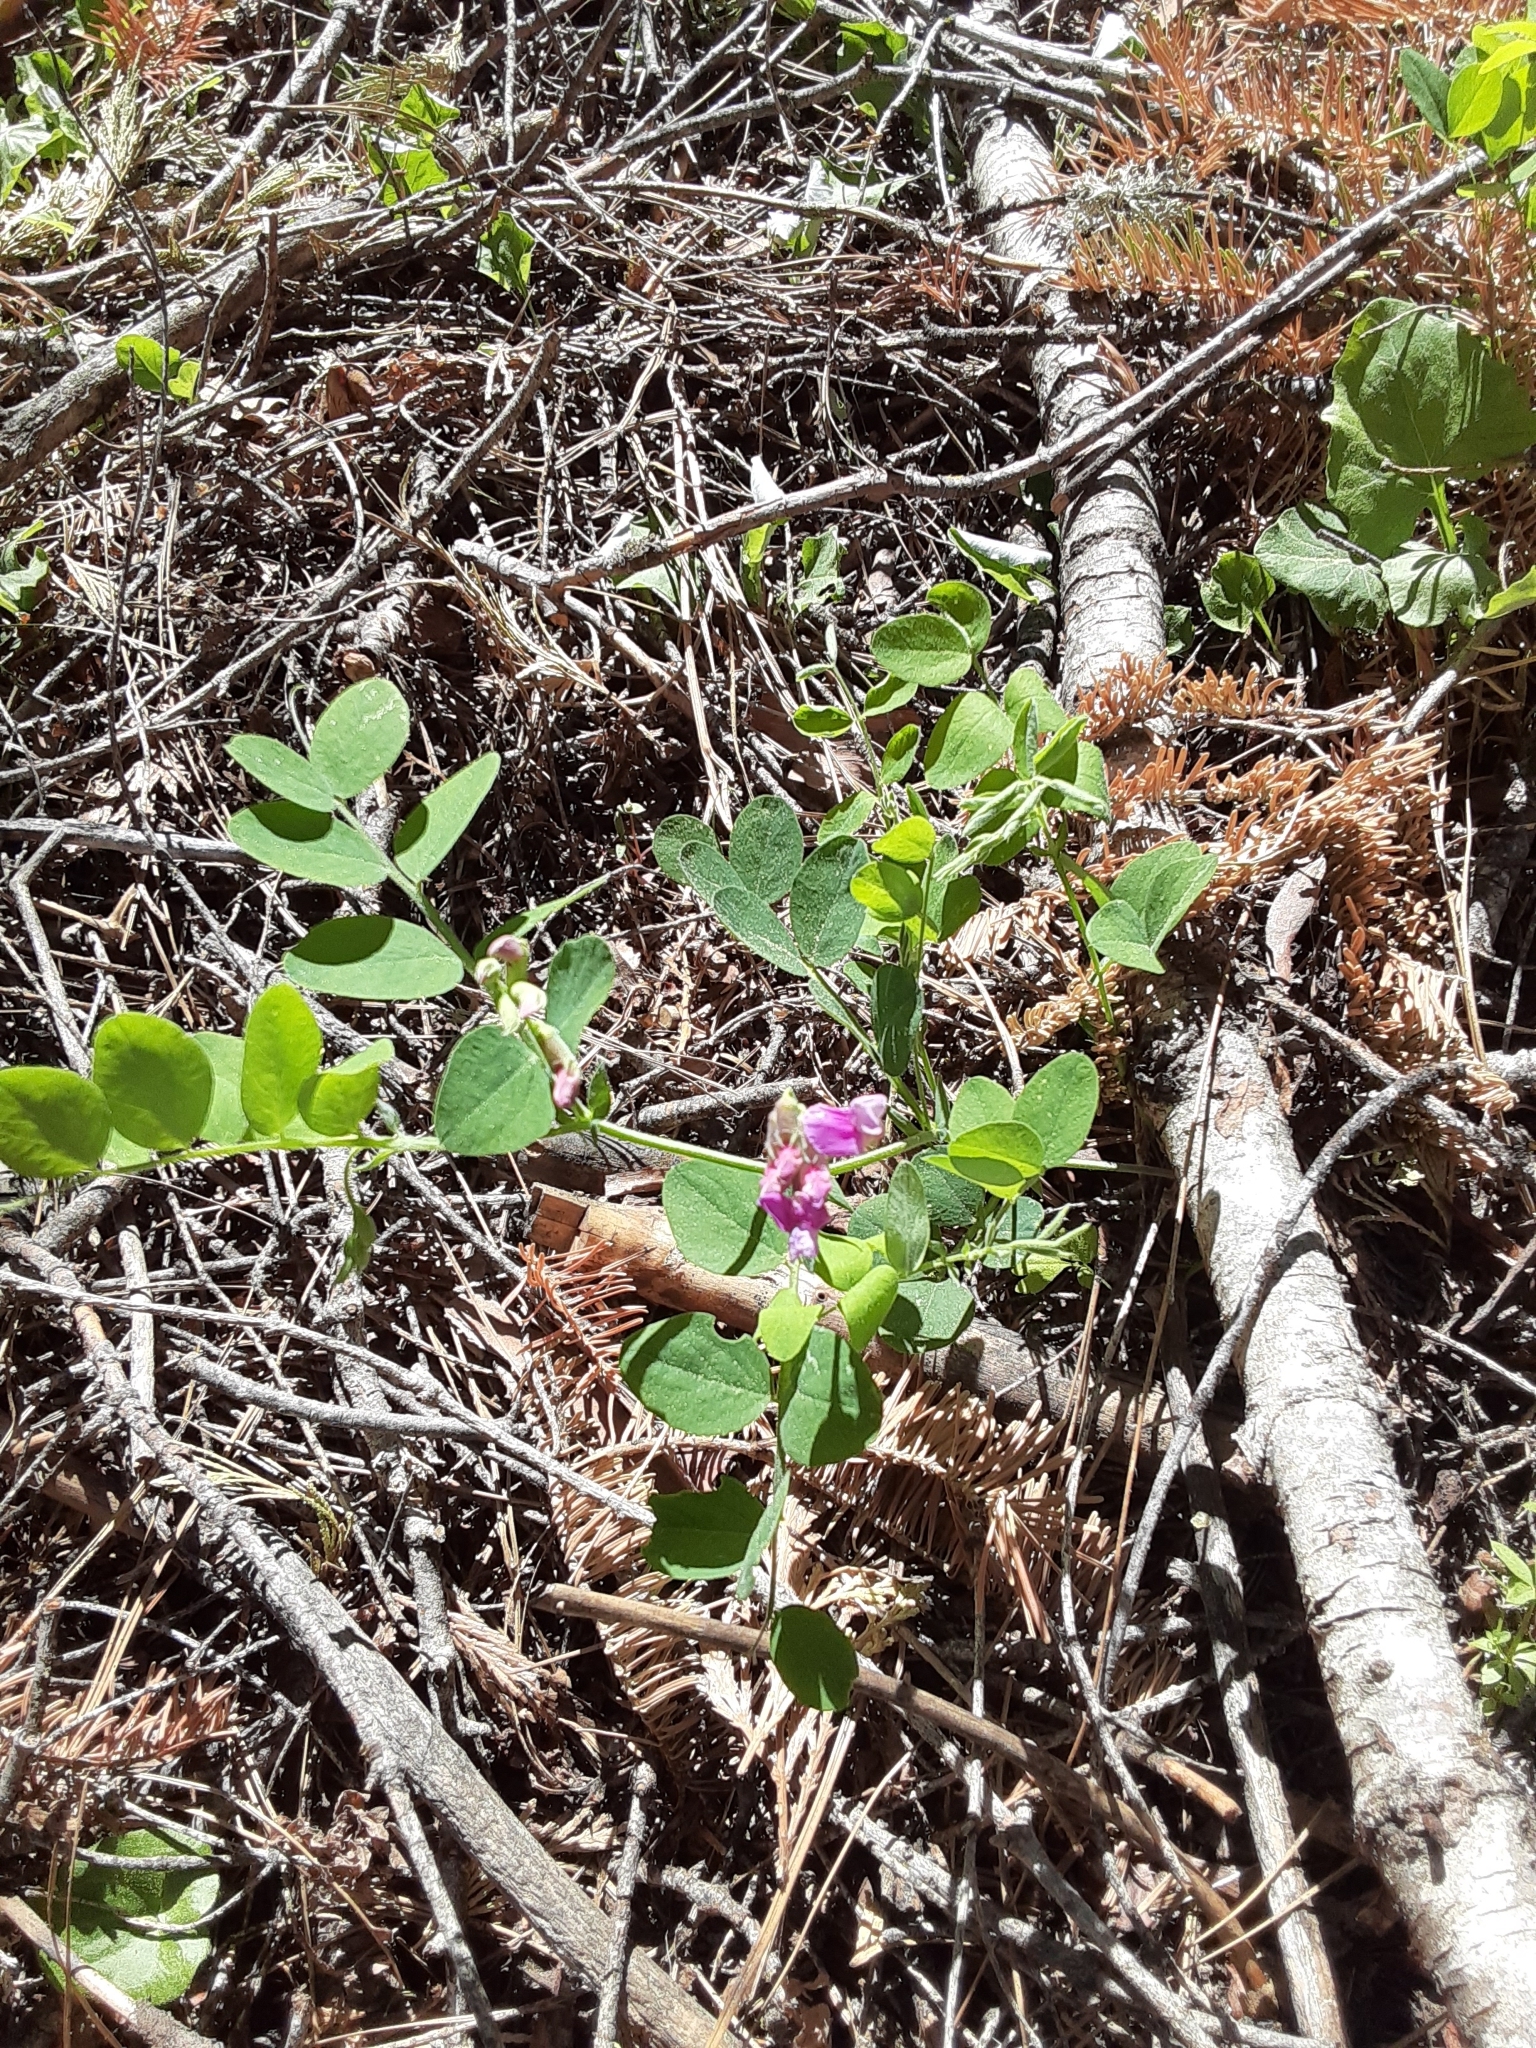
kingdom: Plantae
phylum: Tracheophyta
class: Magnoliopsida
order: Fabales
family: Fabaceae
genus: Lathyrus
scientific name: Lathyrus nevadensis
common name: Sierra nevada peavine
